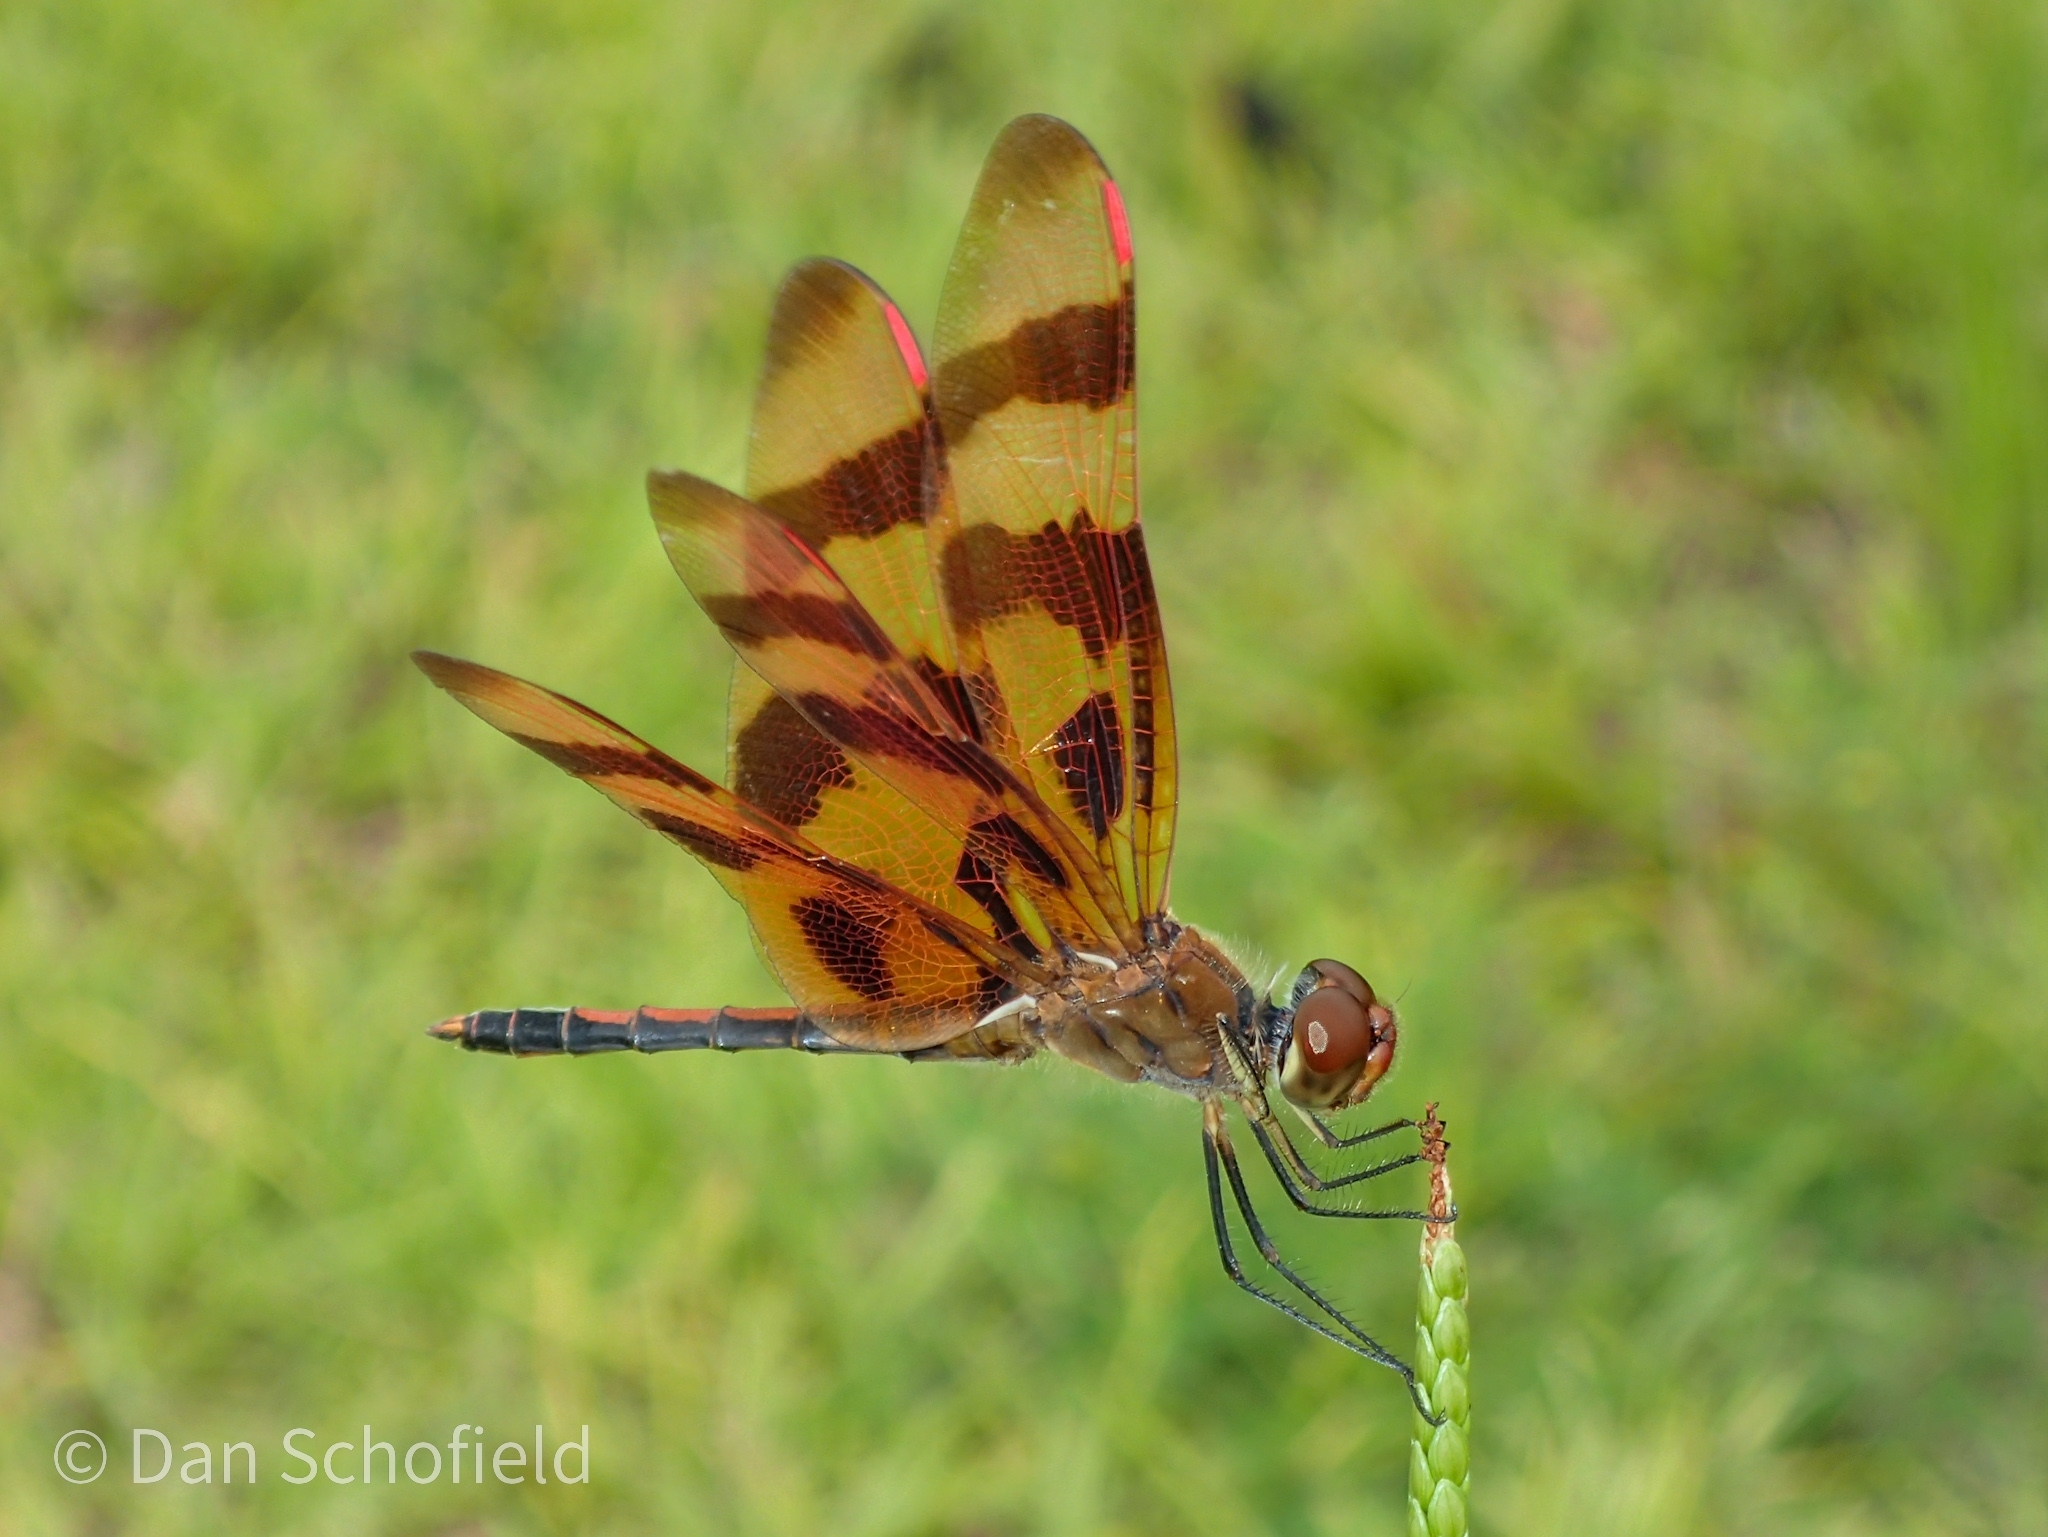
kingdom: Animalia
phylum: Arthropoda
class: Insecta
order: Odonata
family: Libellulidae
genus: Celithemis
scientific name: Celithemis eponina
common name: Halloween pennant
